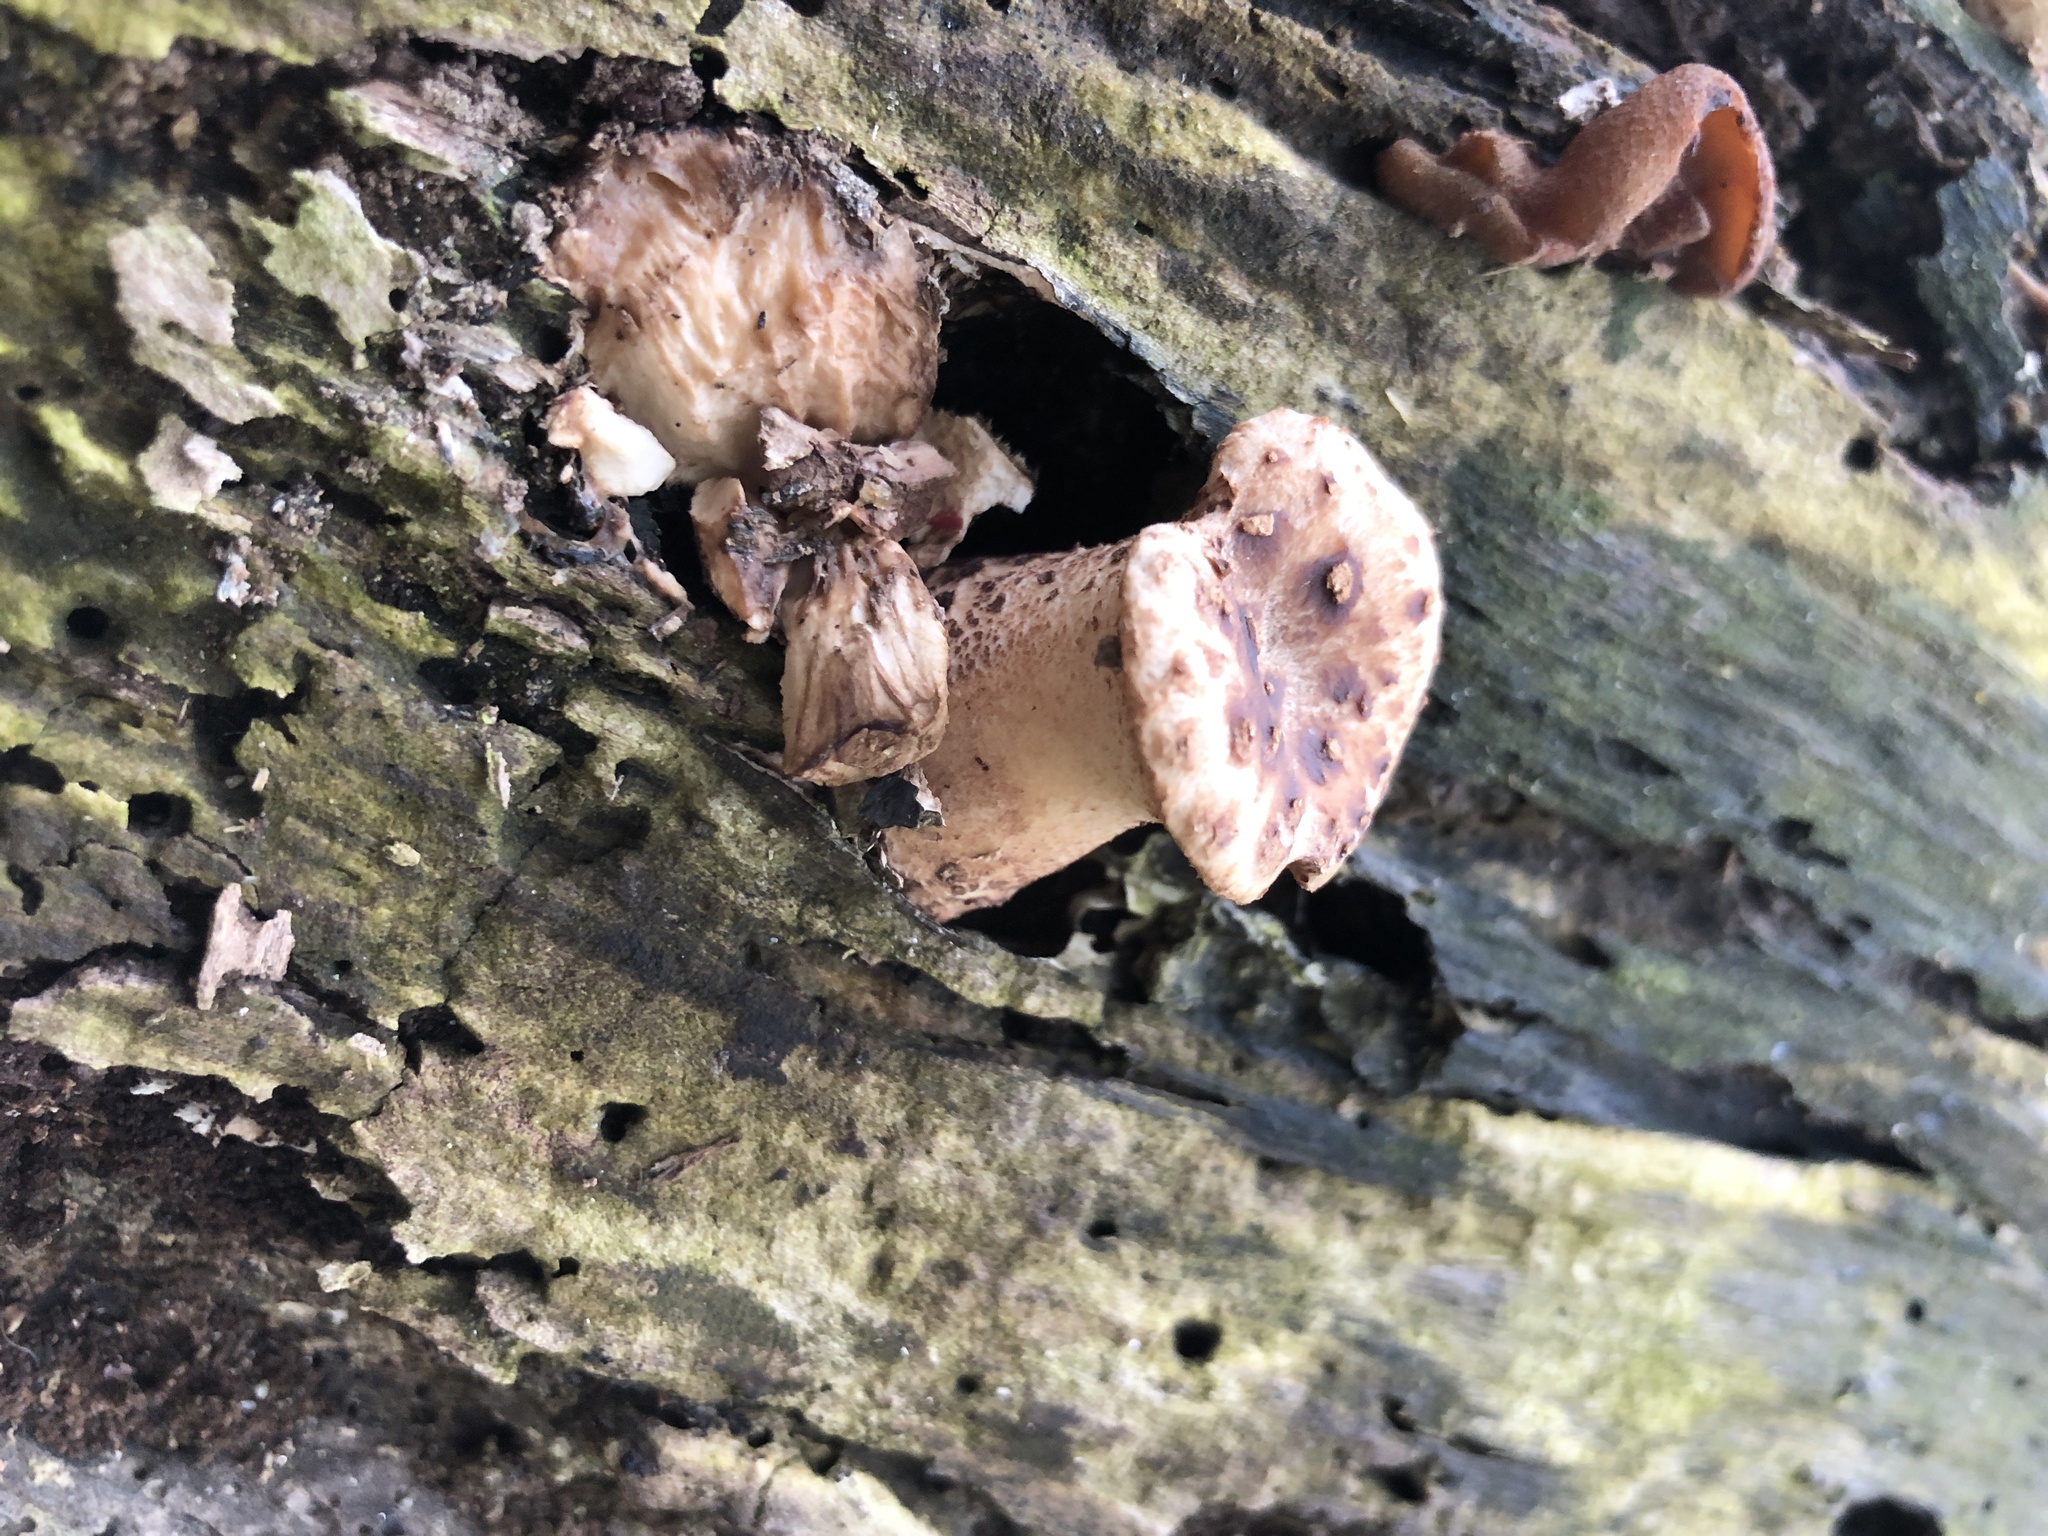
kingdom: Fungi
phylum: Basidiomycota
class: Agaricomycetes
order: Polyporales
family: Polyporaceae
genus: Cerioporus
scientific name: Cerioporus squamosus
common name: Dryad's saddle
